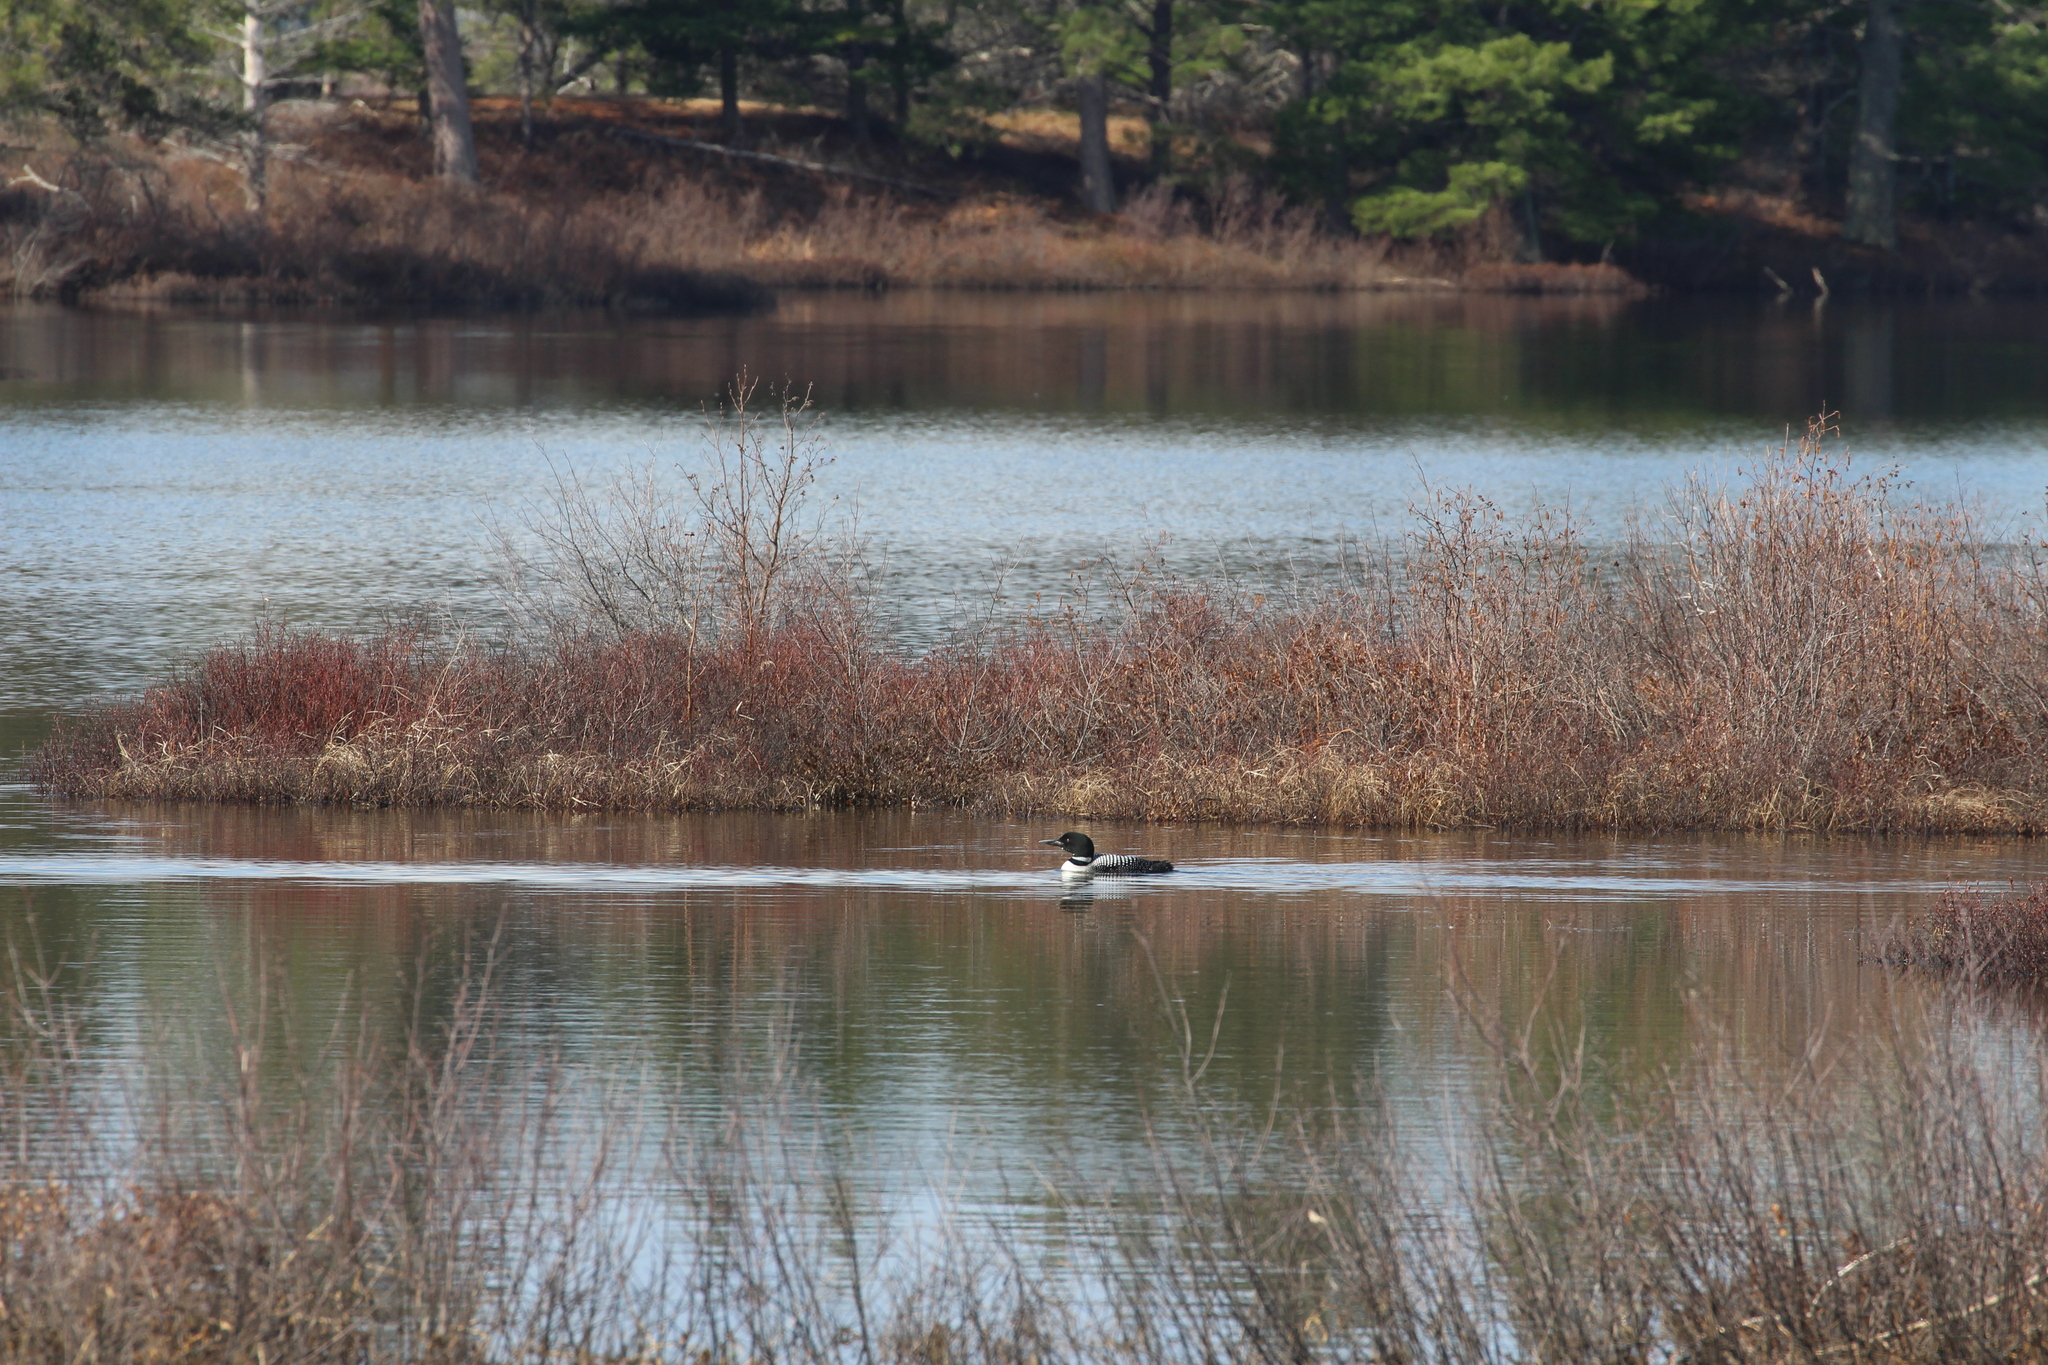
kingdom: Animalia
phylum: Chordata
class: Aves
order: Gaviiformes
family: Gaviidae
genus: Gavia
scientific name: Gavia immer
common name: Common loon
